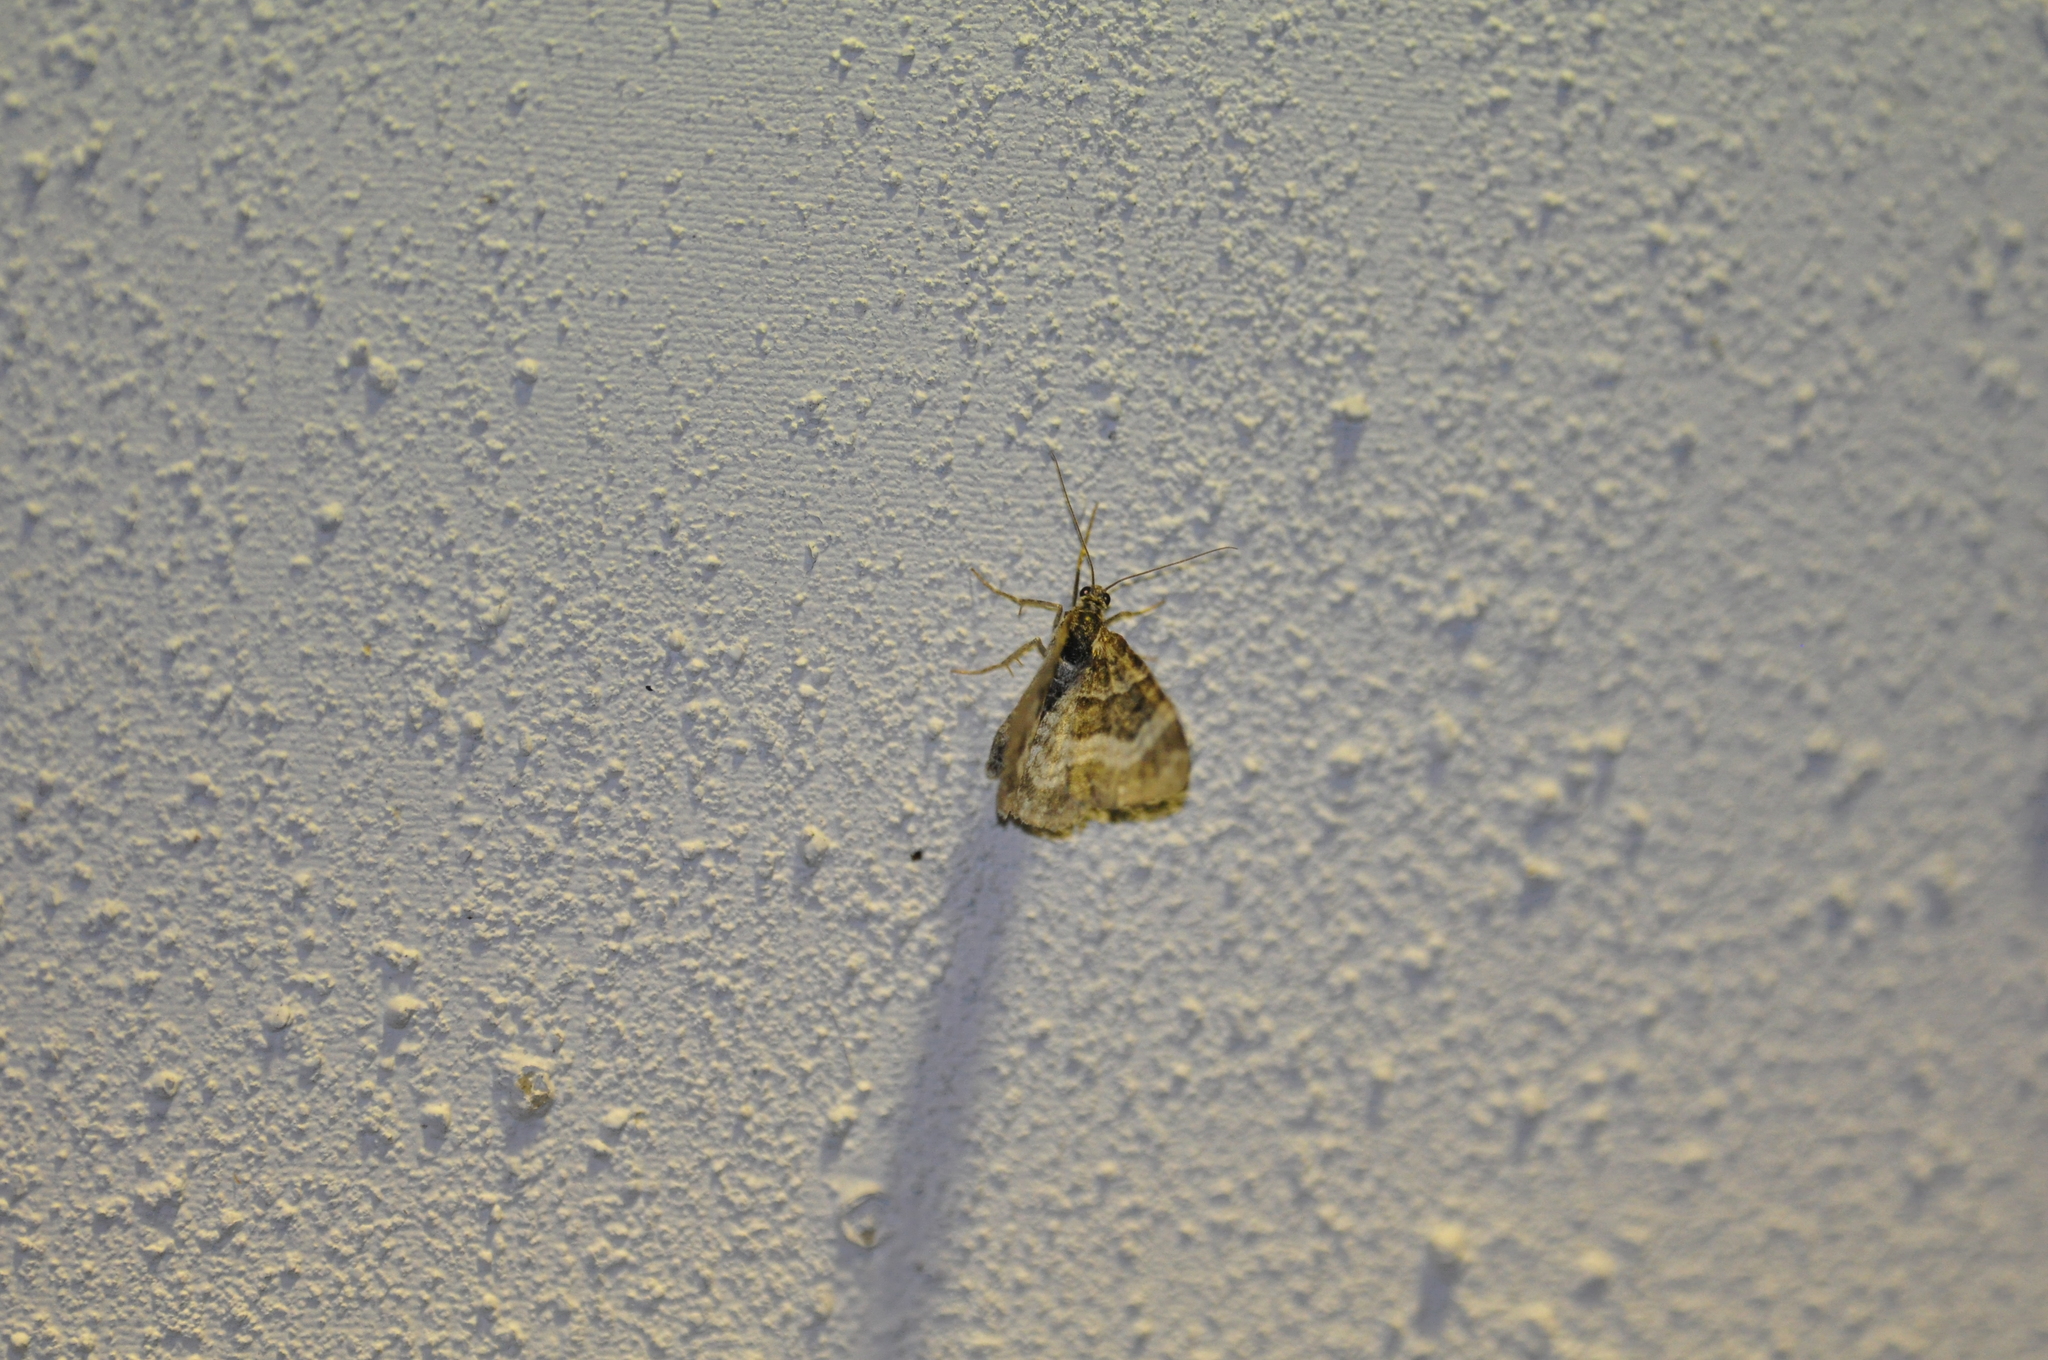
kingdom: Animalia
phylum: Arthropoda
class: Insecta
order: Lepidoptera
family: Geometridae
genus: Epirrhoe
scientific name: Epirrhoe alternata
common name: Common carpet
